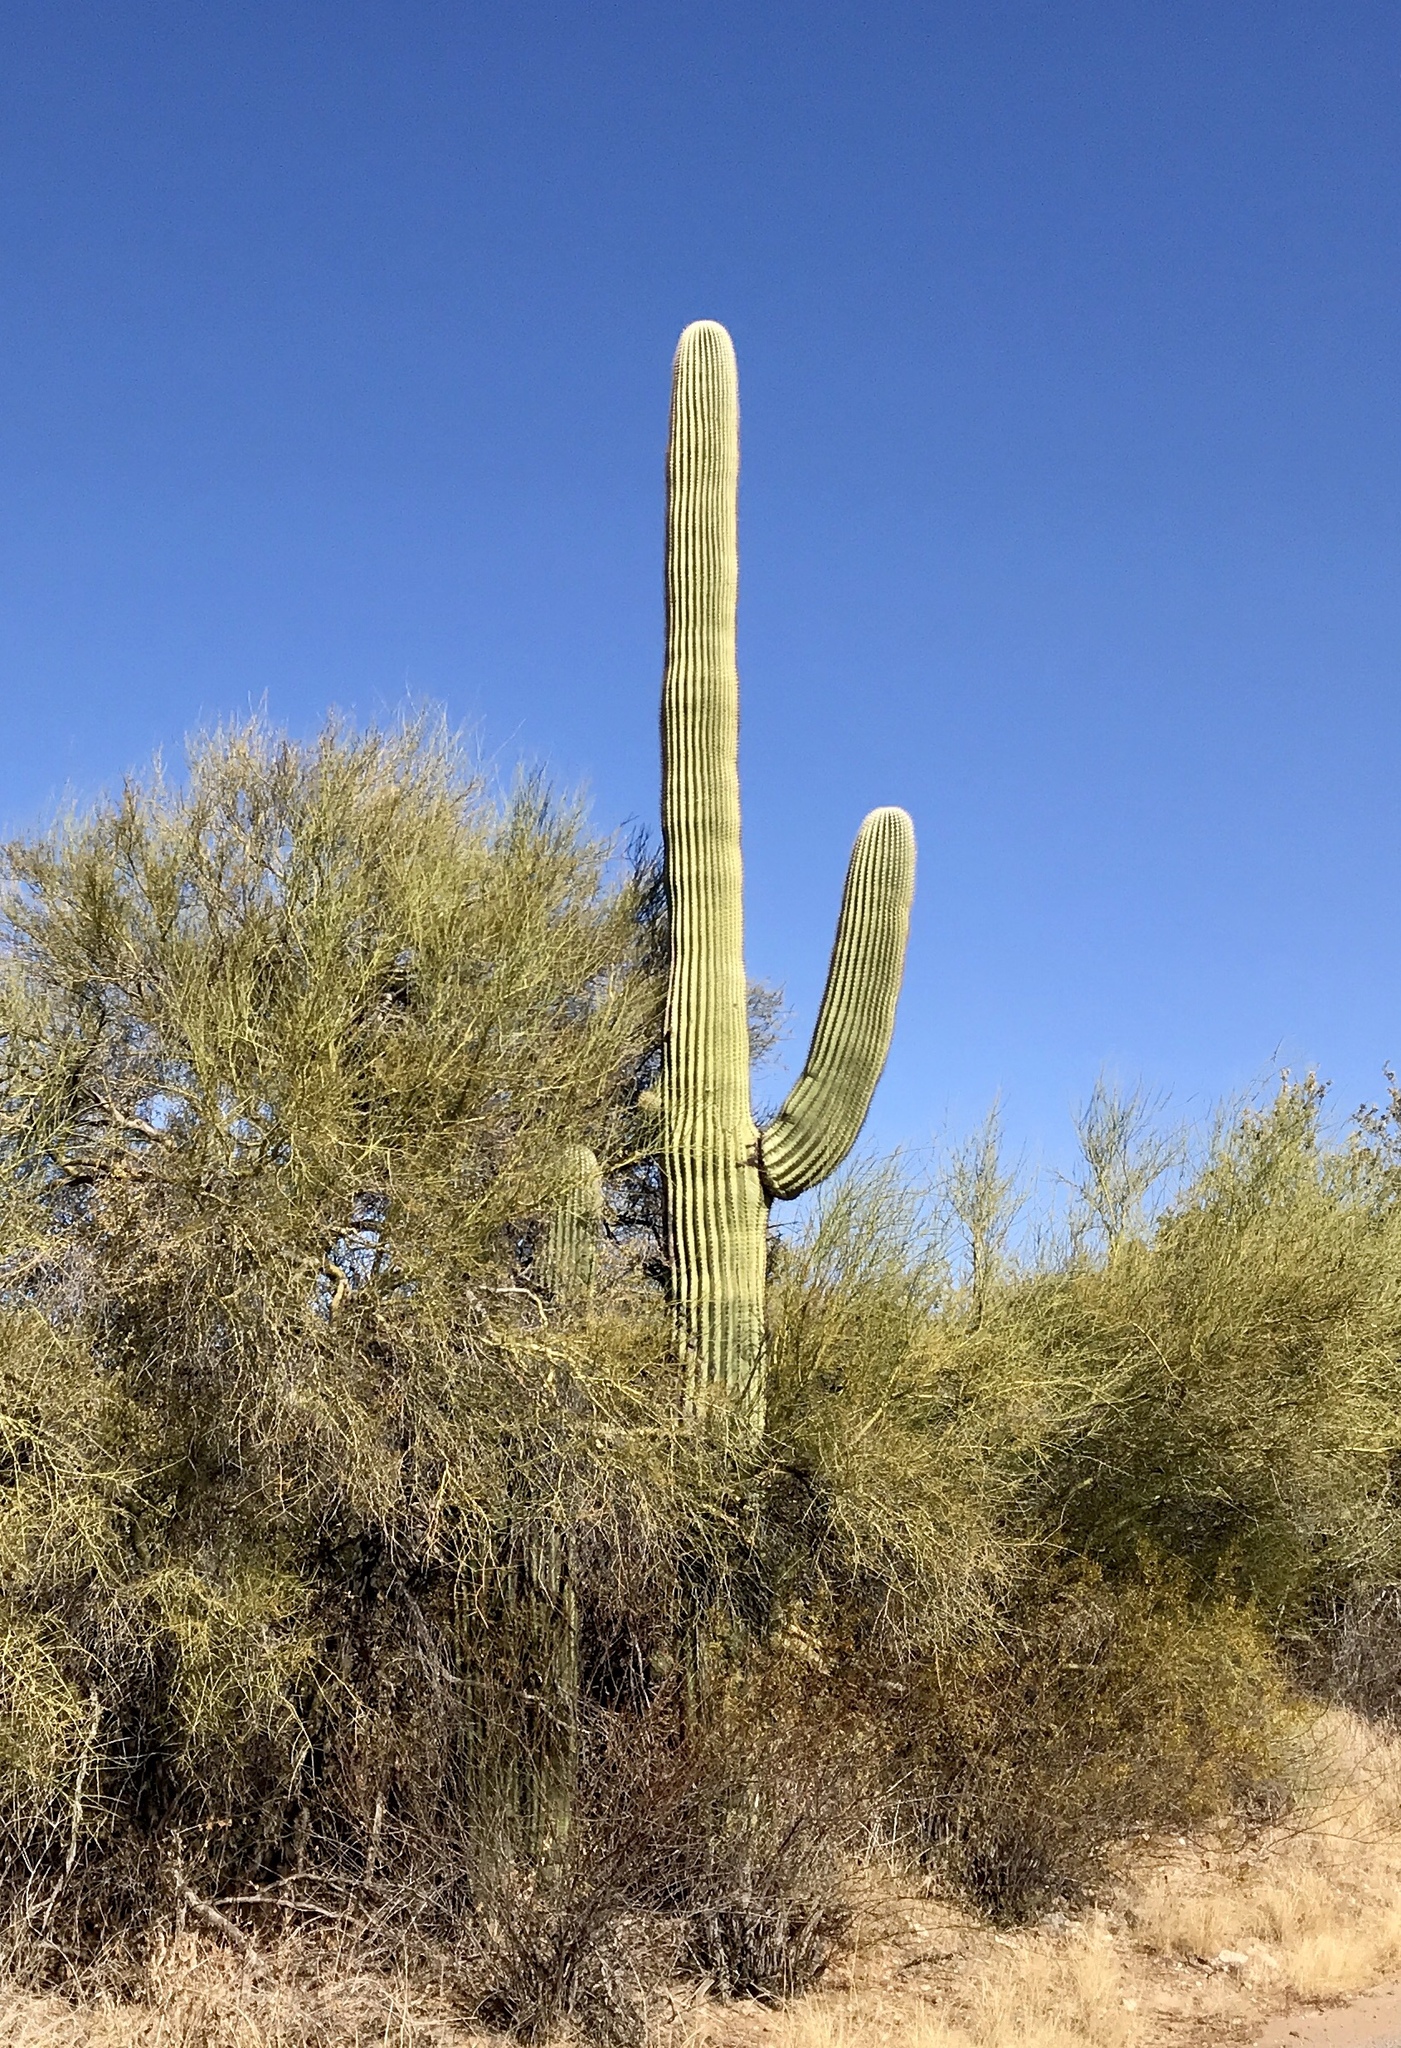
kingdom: Plantae
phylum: Tracheophyta
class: Magnoliopsida
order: Caryophyllales
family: Cactaceae
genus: Carnegiea
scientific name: Carnegiea gigantea
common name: Saguaro
